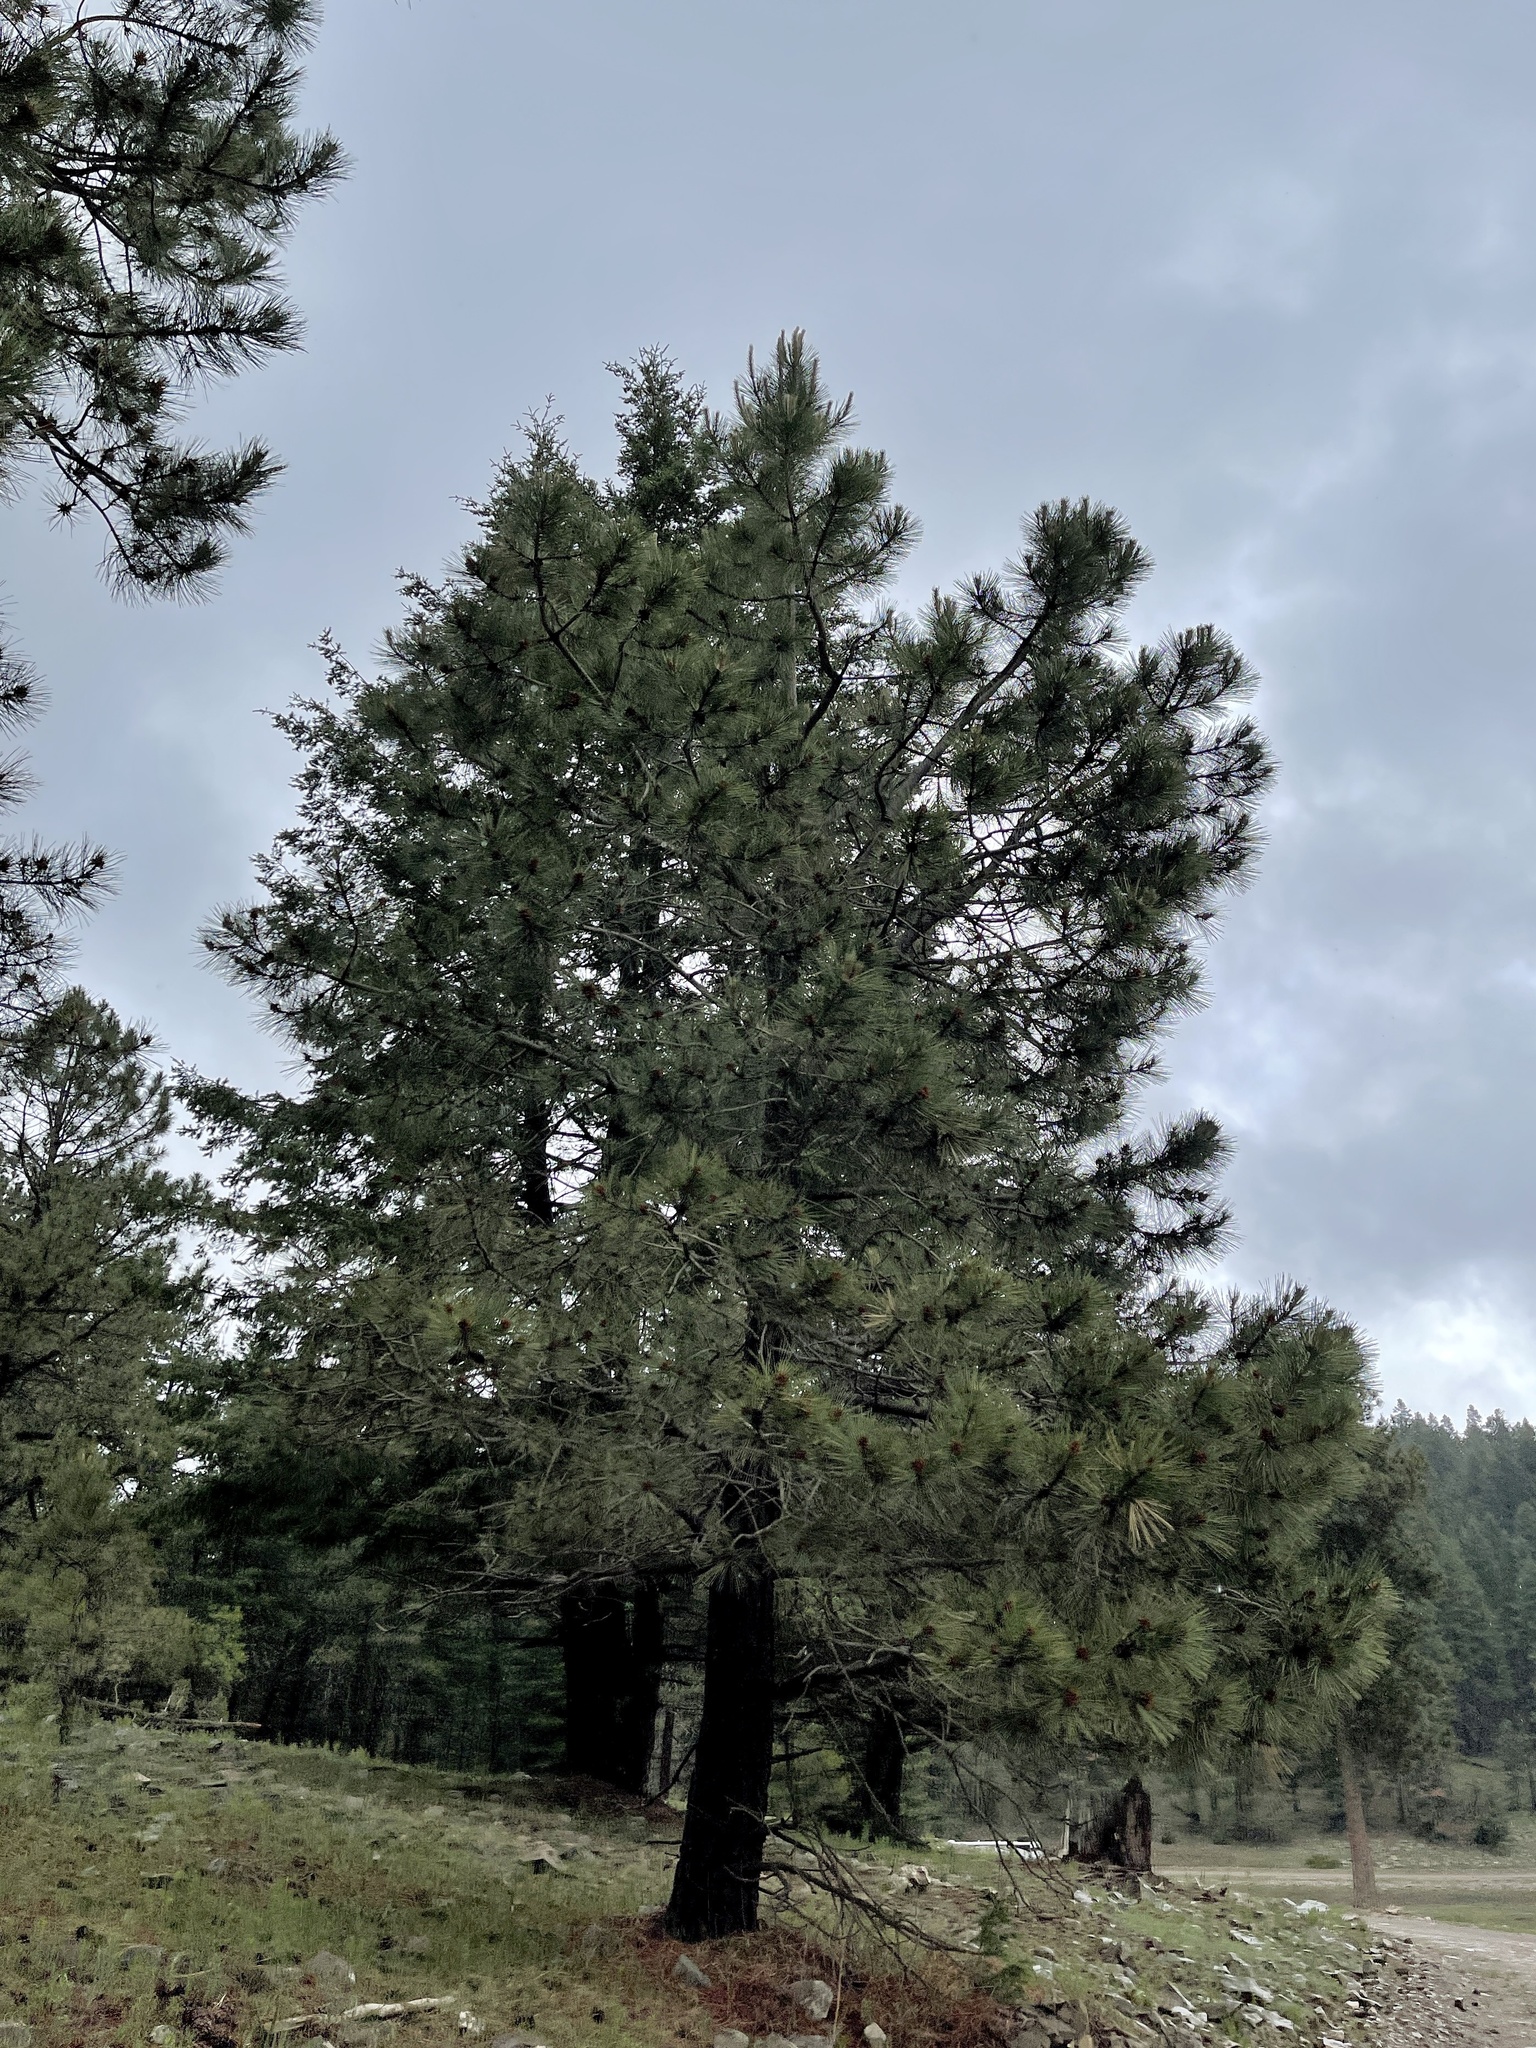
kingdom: Plantae
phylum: Tracheophyta
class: Pinopsida
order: Pinales
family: Pinaceae
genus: Pinus
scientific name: Pinus ponderosa
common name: Western yellow-pine
